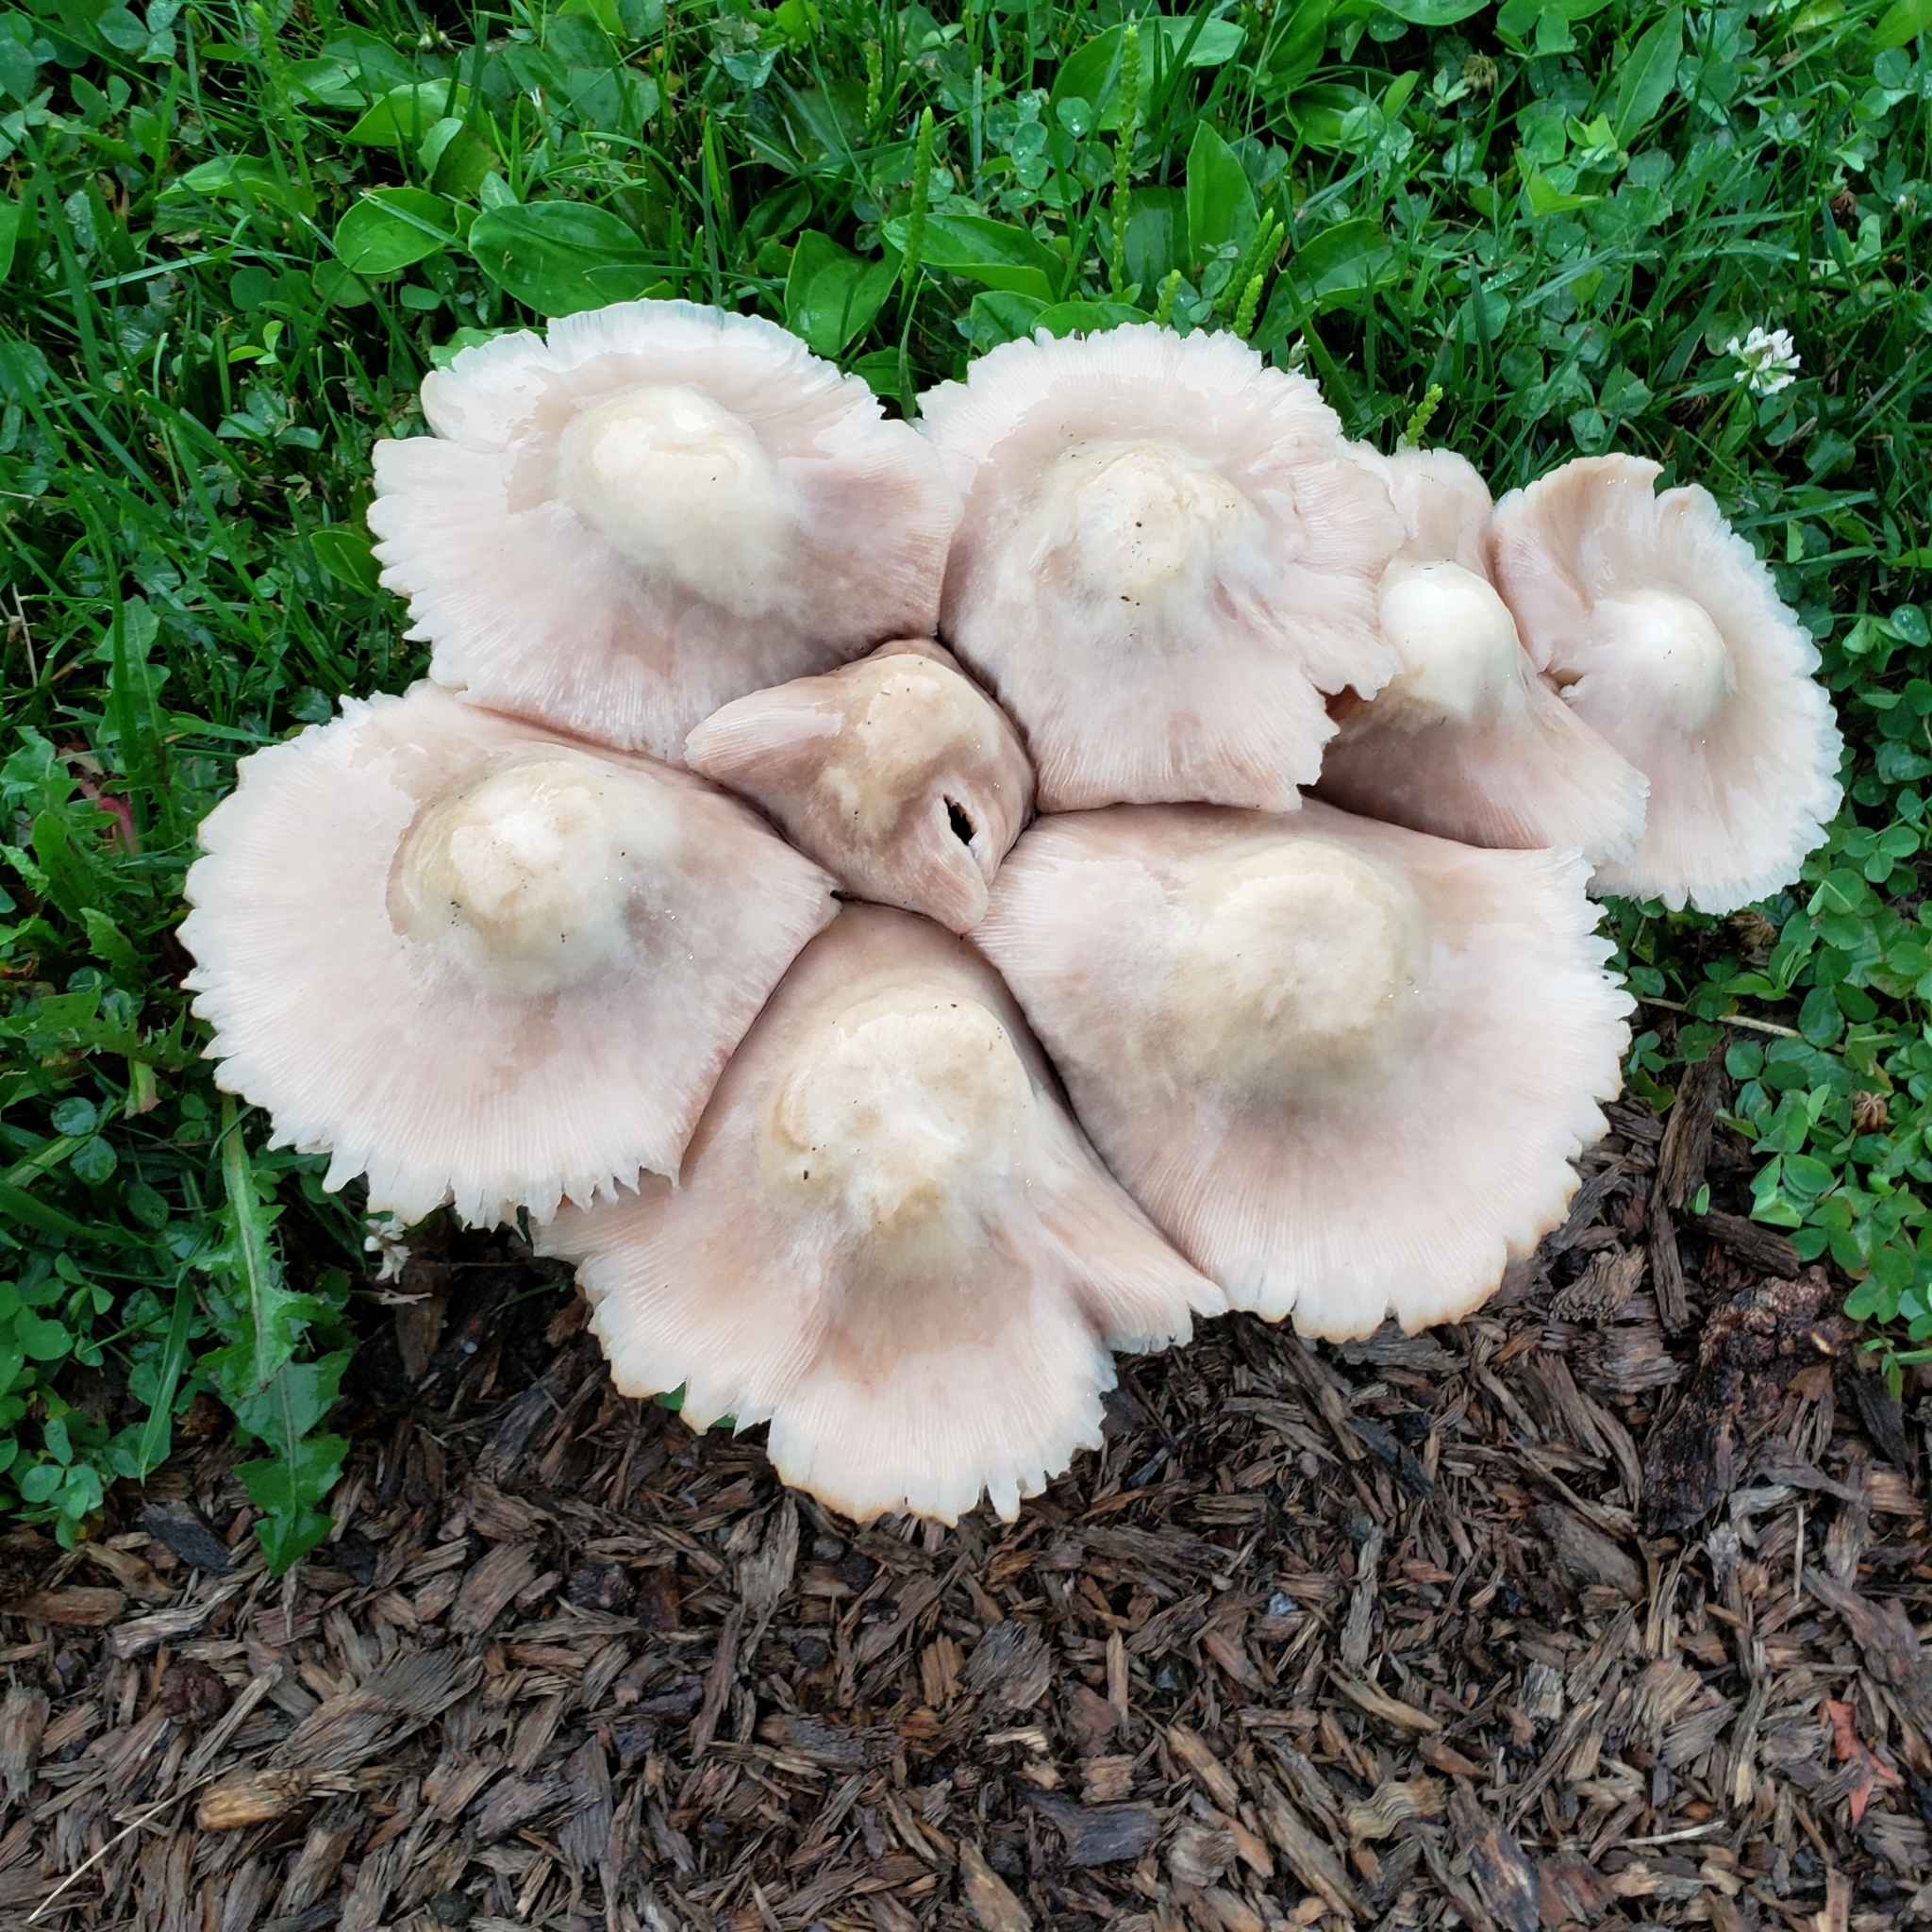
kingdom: Fungi
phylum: Basidiomycota
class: Agaricomycetes
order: Agaricales
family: Pluteaceae
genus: Pluteus
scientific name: Pluteus cervinus
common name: Deer shield
